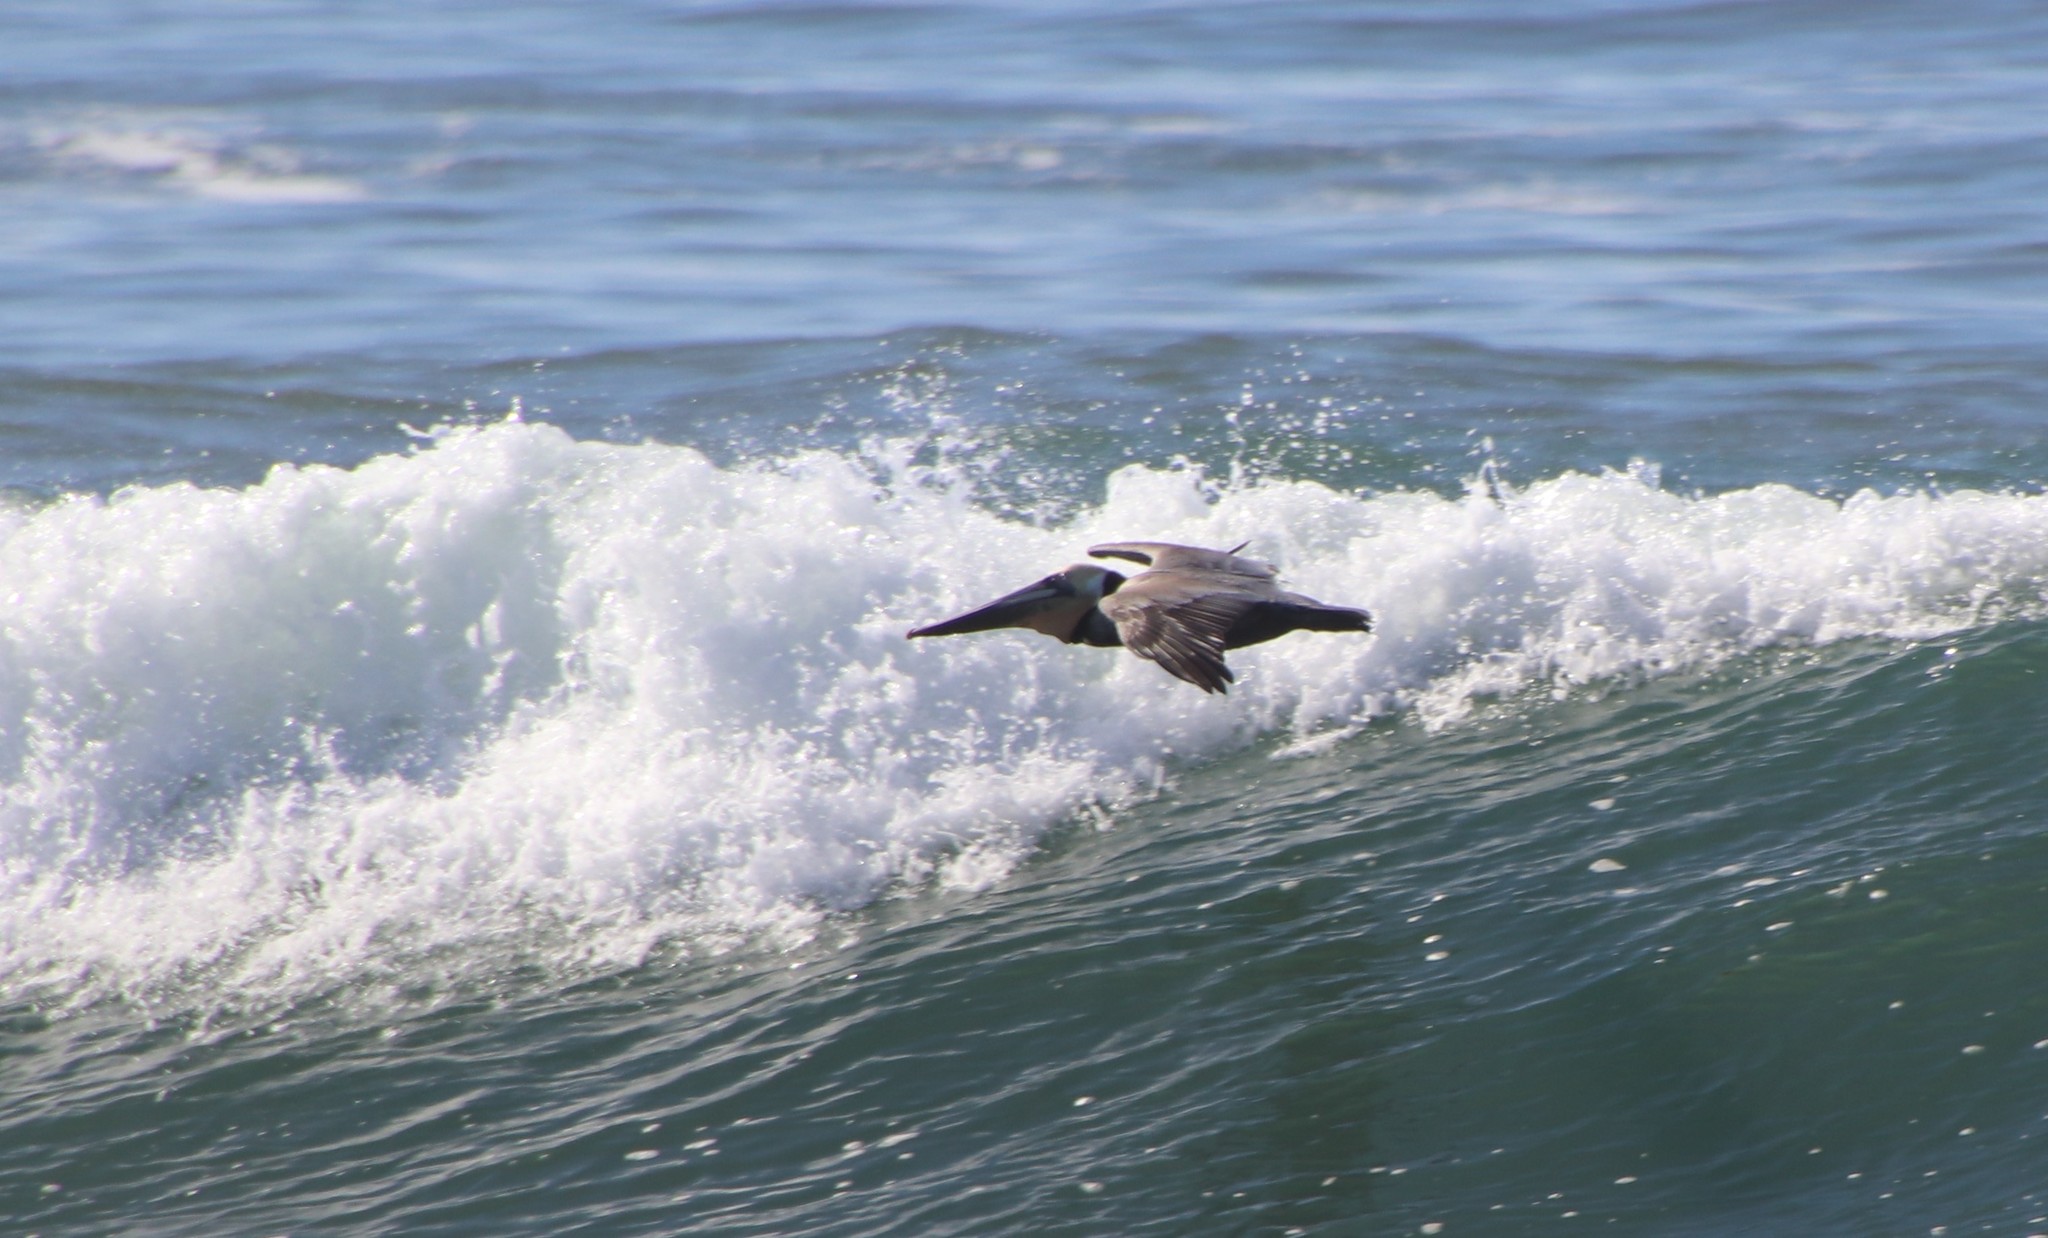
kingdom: Animalia
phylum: Chordata
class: Aves
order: Pelecaniformes
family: Pelecanidae
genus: Pelecanus
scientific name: Pelecanus occidentalis
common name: Brown pelican
